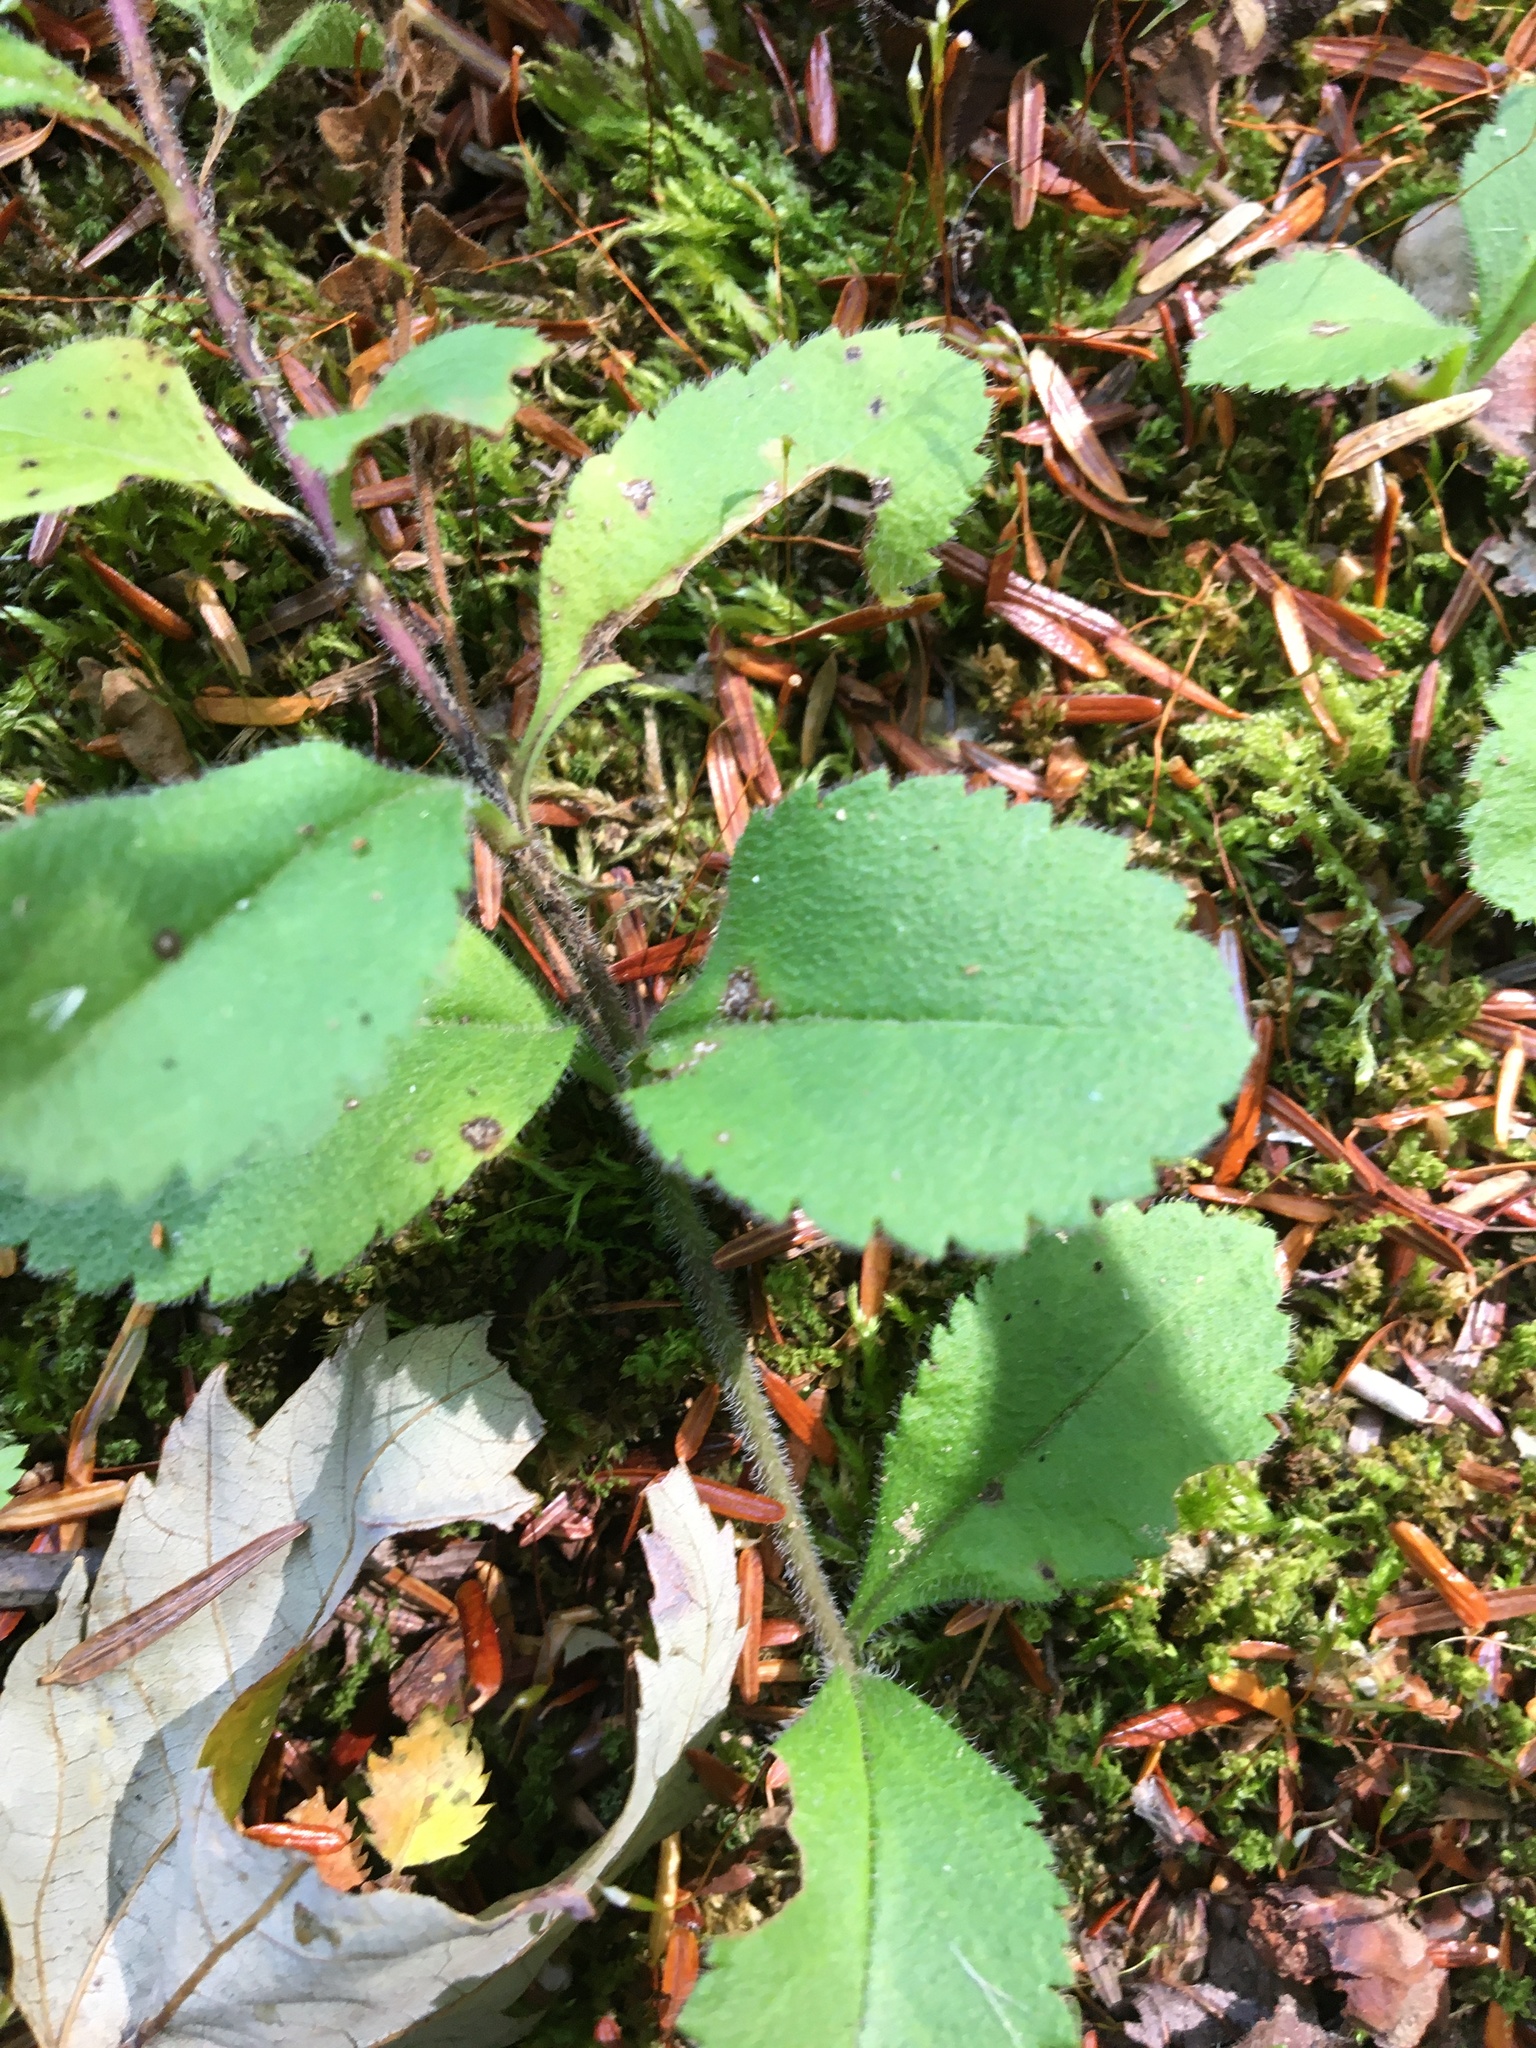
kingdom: Plantae
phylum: Tracheophyta
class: Magnoliopsida
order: Lamiales
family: Plantaginaceae
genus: Veronica
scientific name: Veronica officinalis
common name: Common speedwell
